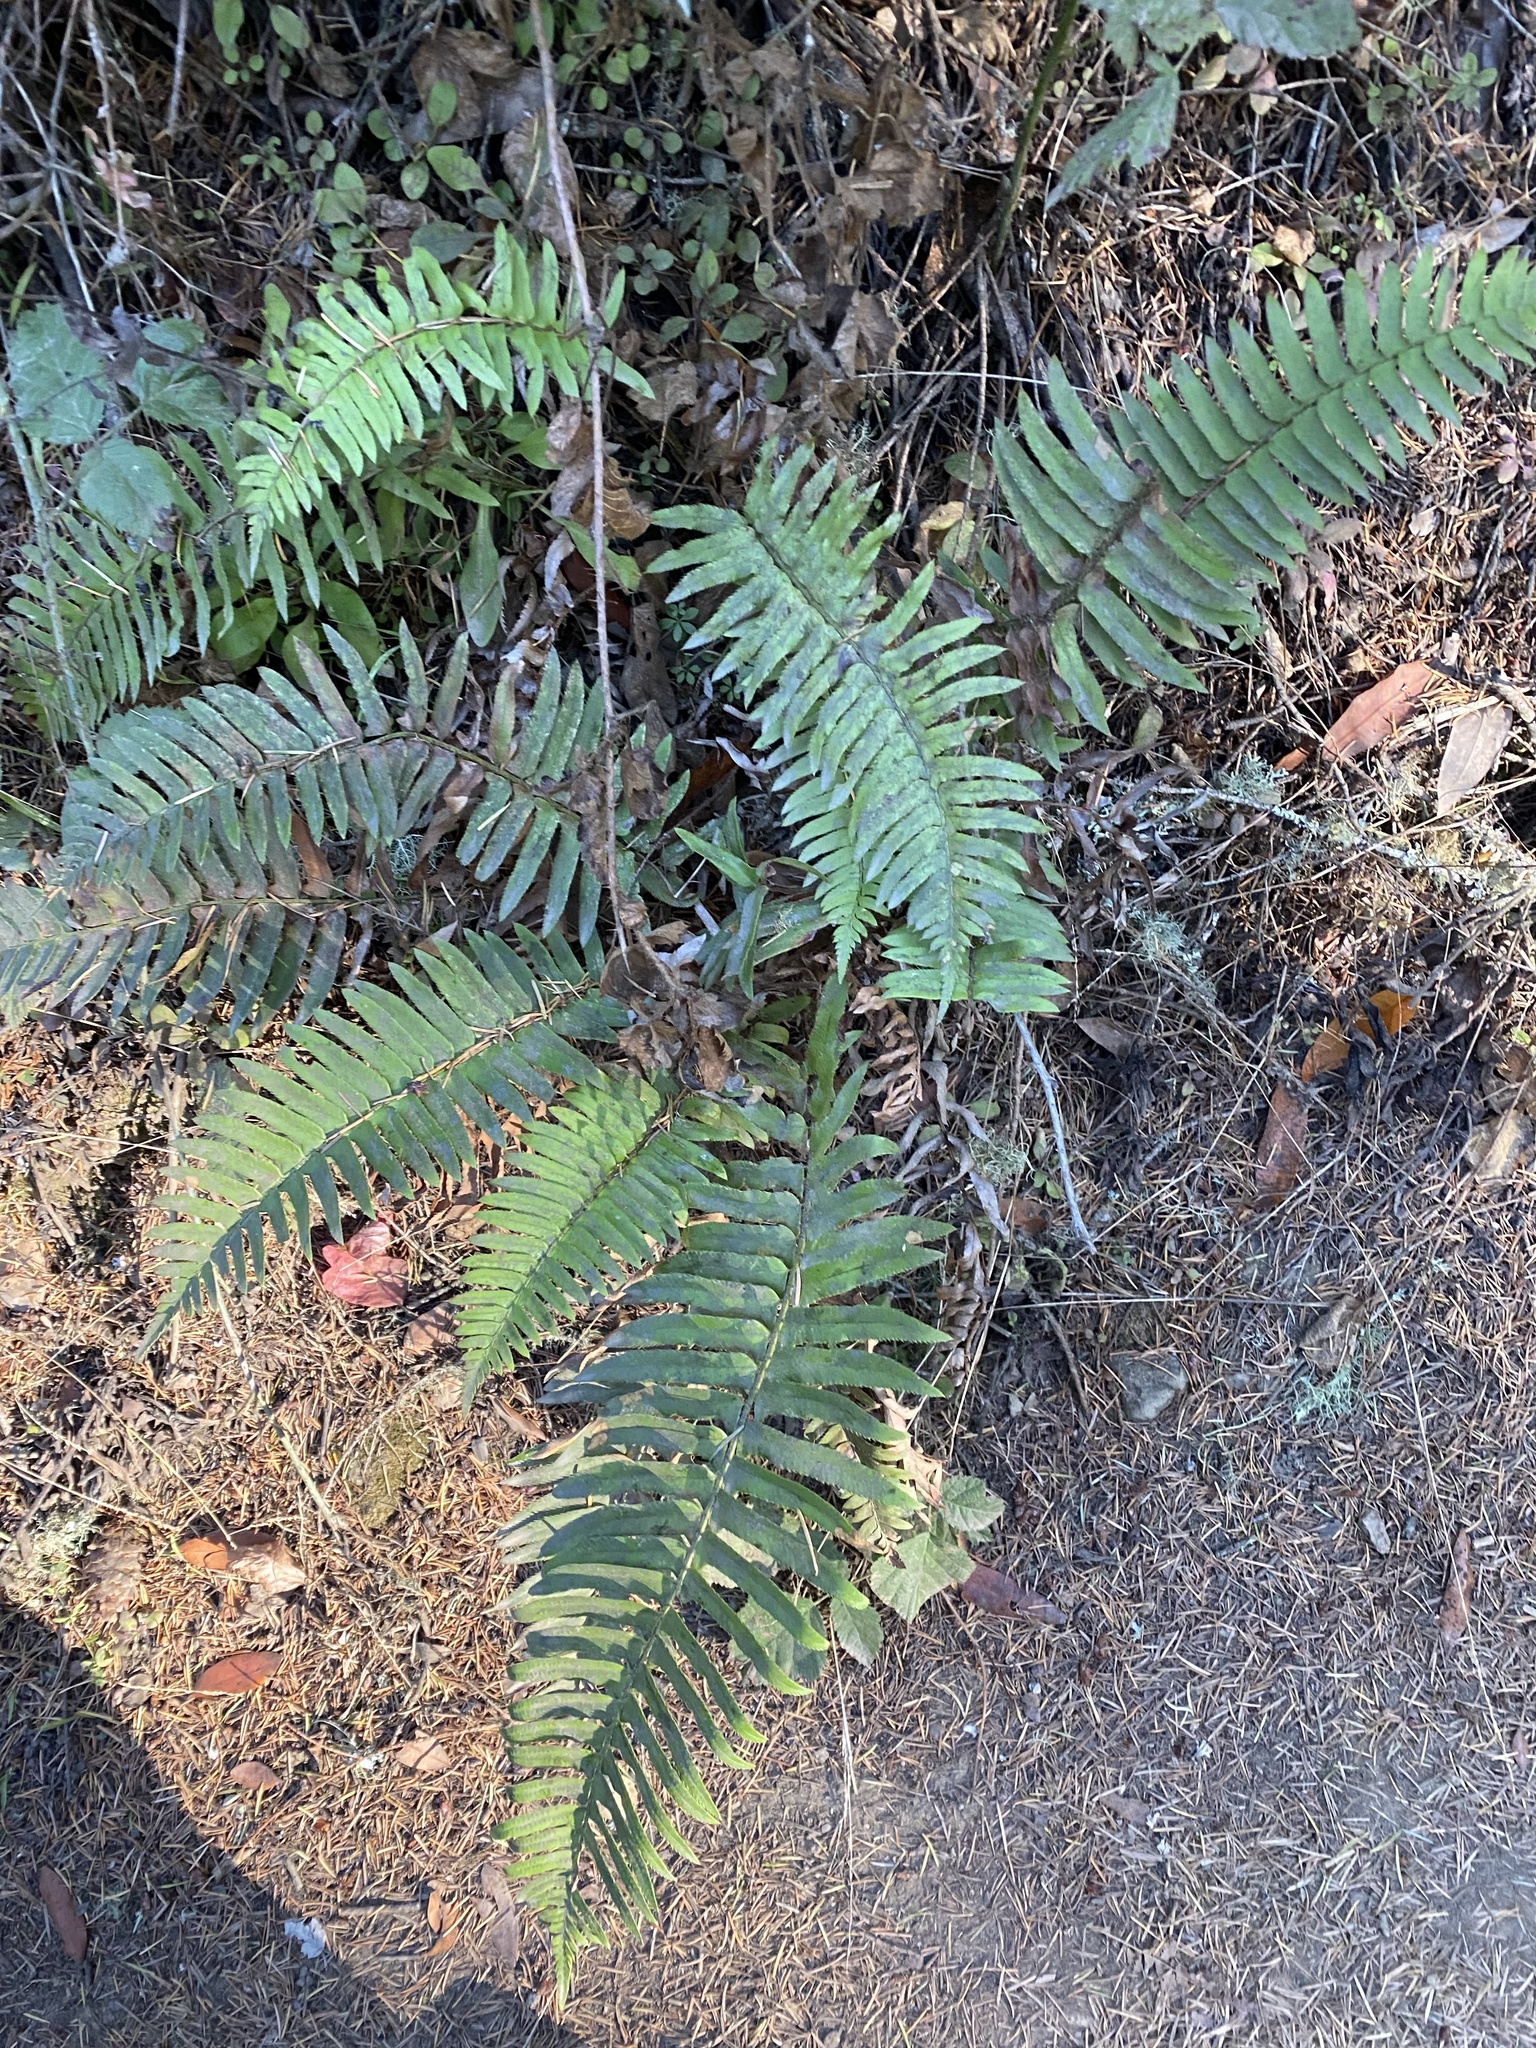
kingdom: Plantae
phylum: Tracheophyta
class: Polypodiopsida
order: Polypodiales
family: Dryopteridaceae
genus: Polystichum
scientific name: Polystichum munitum
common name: Western sword-fern
